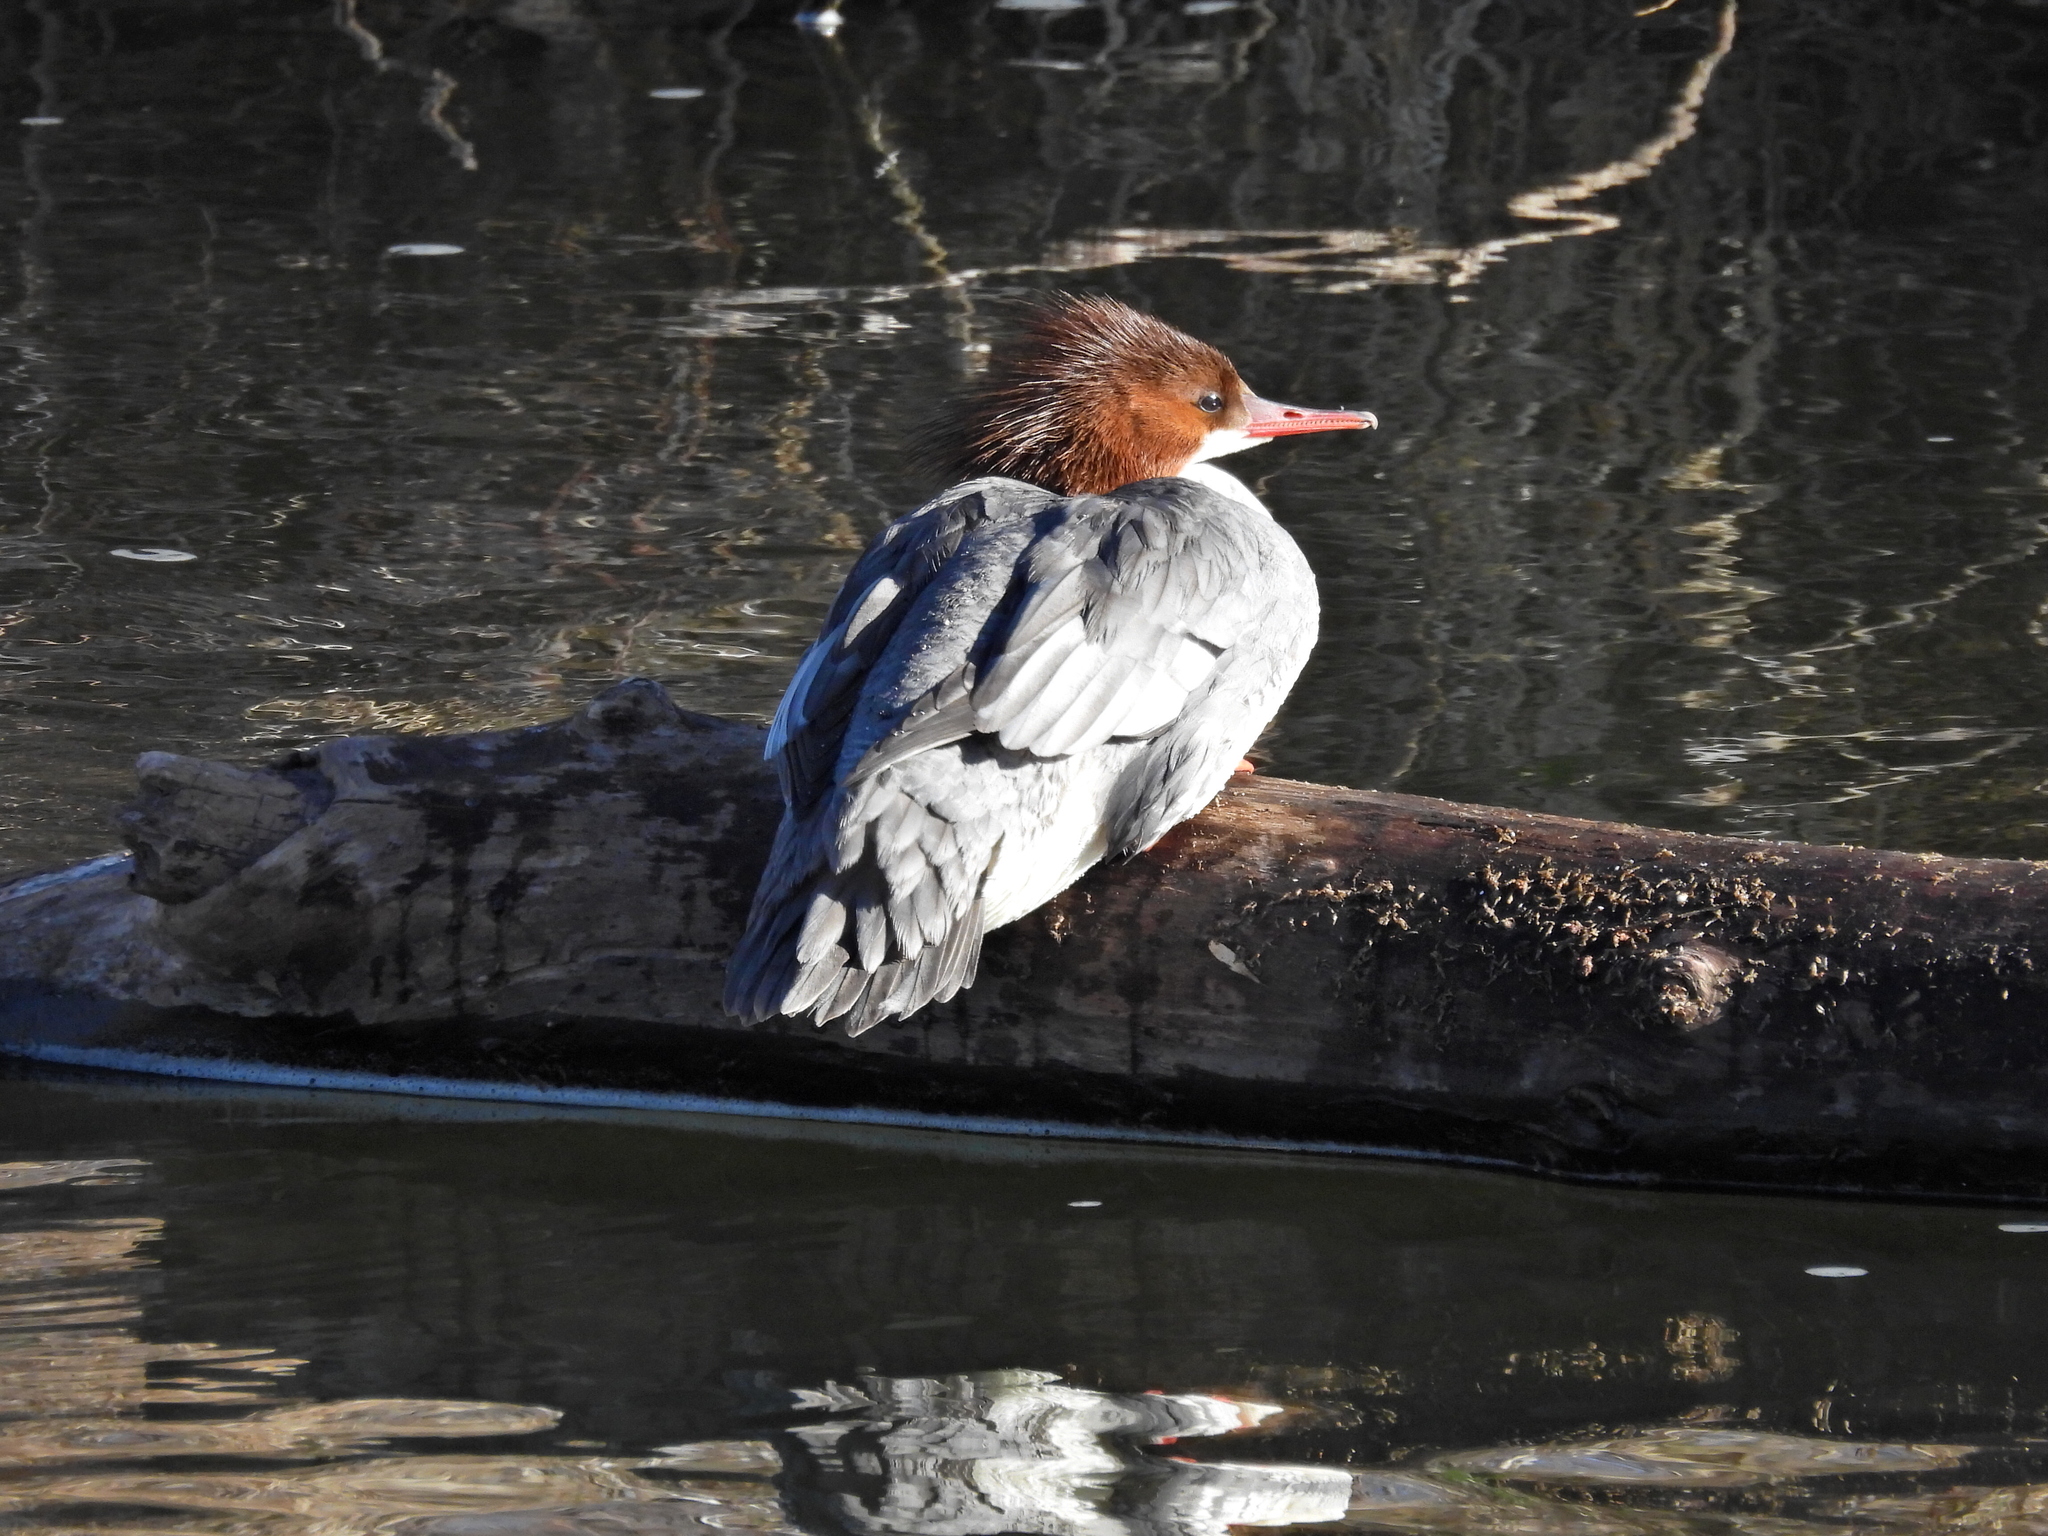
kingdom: Animalia
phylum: Chordata
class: Aves
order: Anseriformes
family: Anatidae
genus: Mergus
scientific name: Mergus merganser
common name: Common merganser
